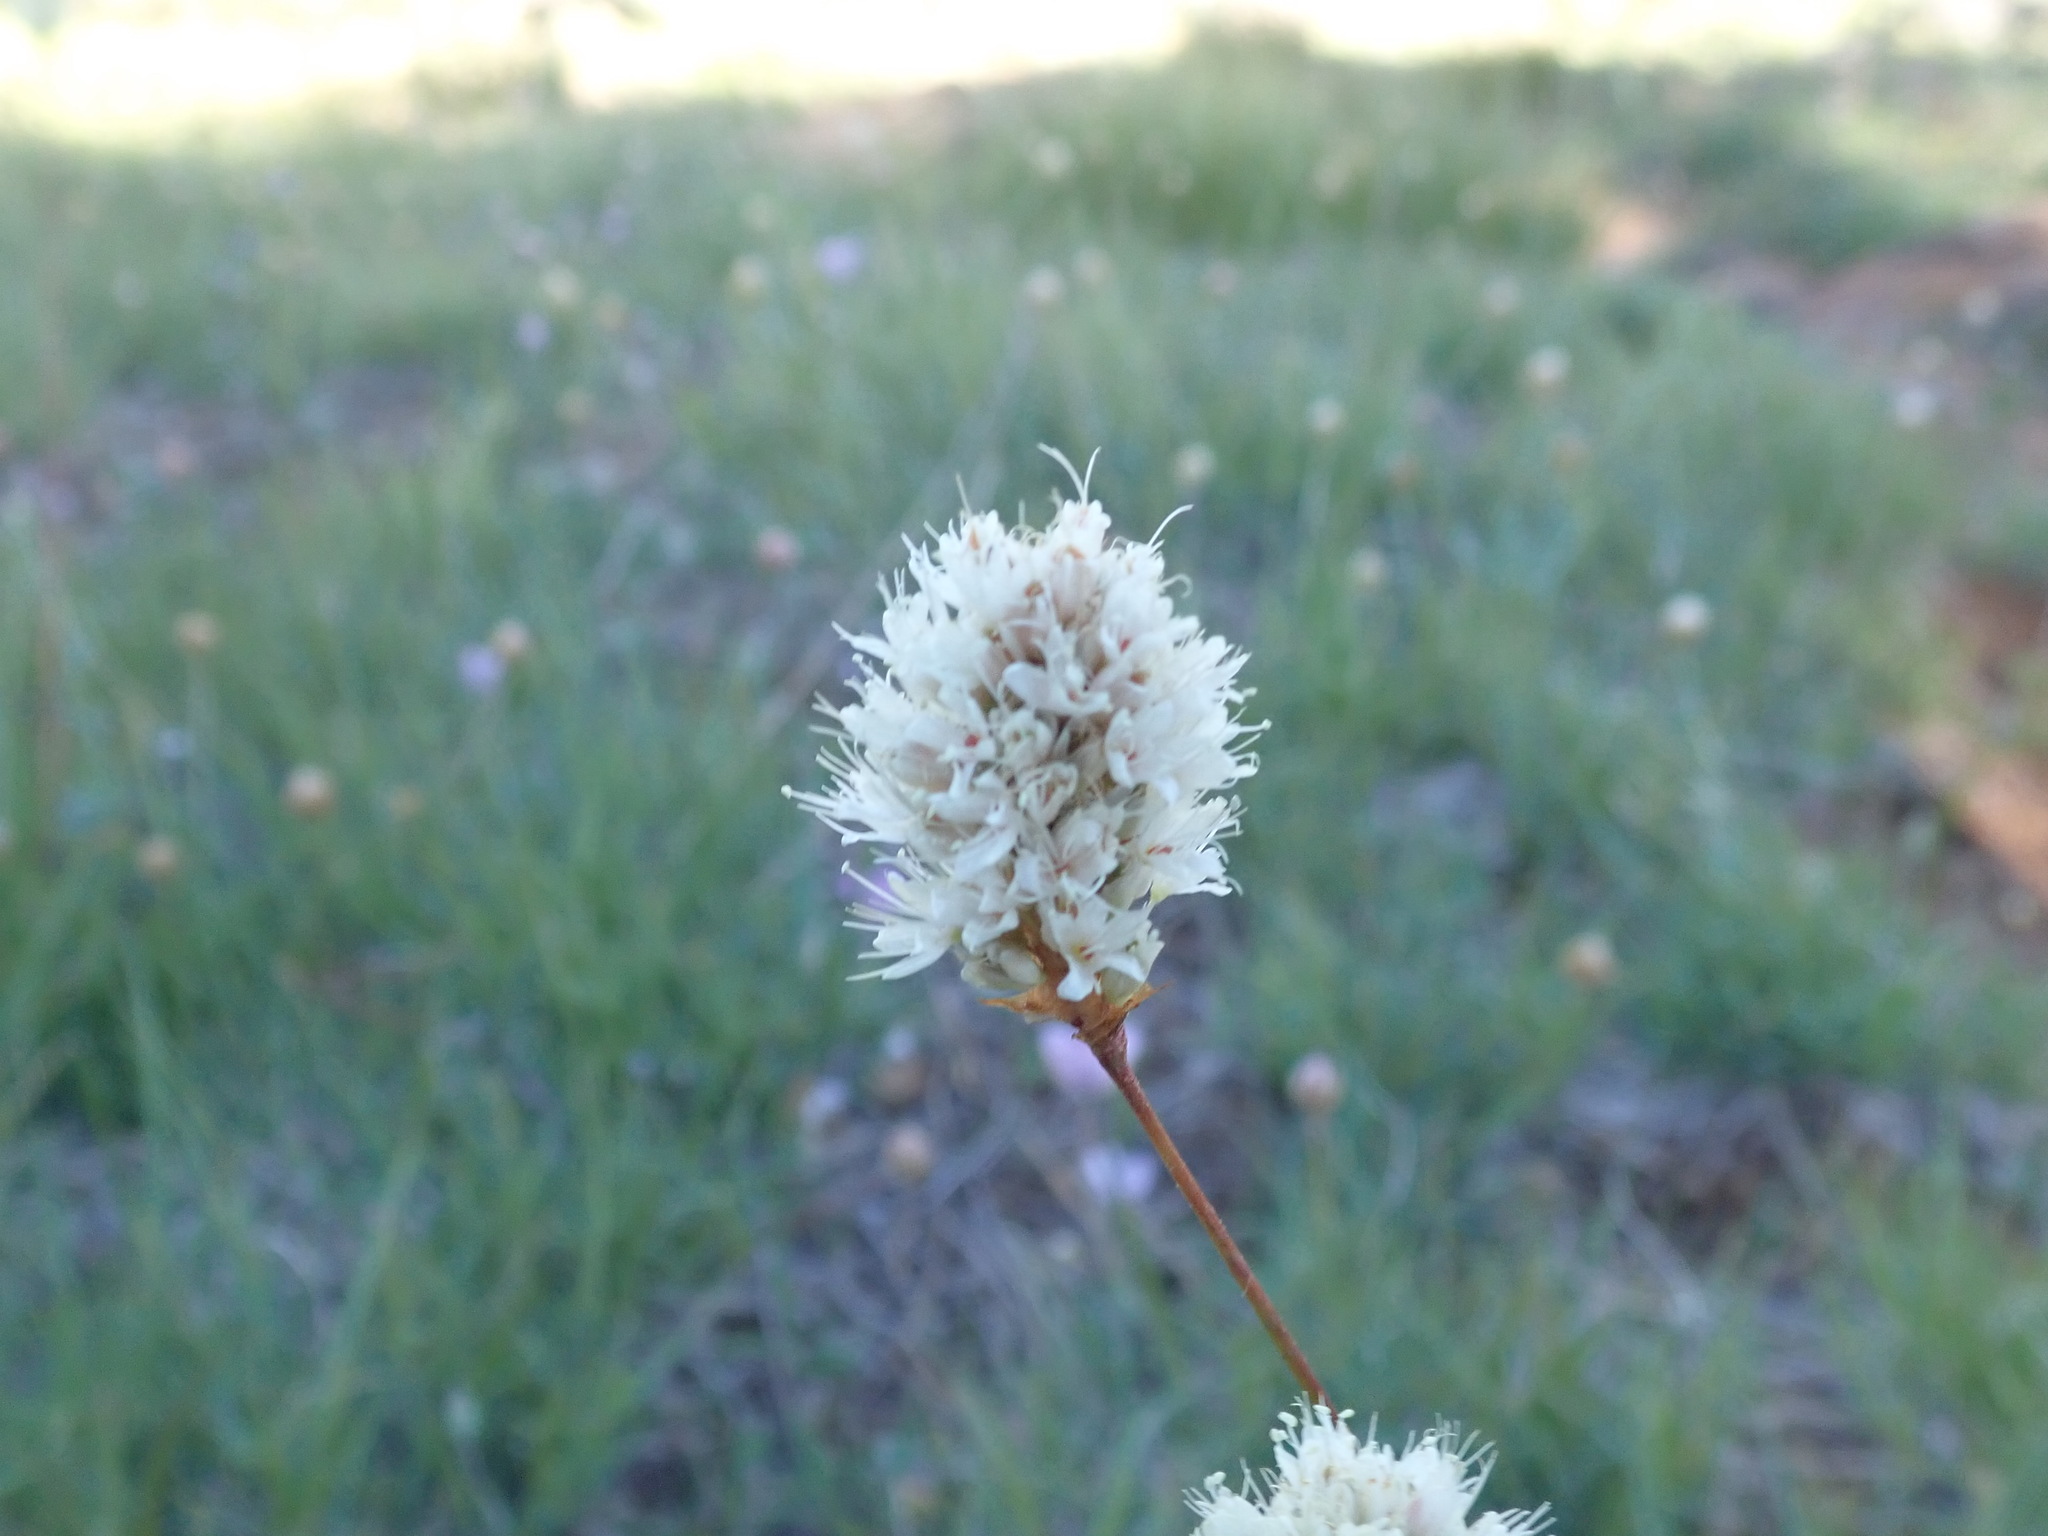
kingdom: Plantae
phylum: Tracheophyta
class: Magnoliopsida
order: Caryophyllales
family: Polygonaceae
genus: Bistorta
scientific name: Bistorta bistortoides
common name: American bistort
